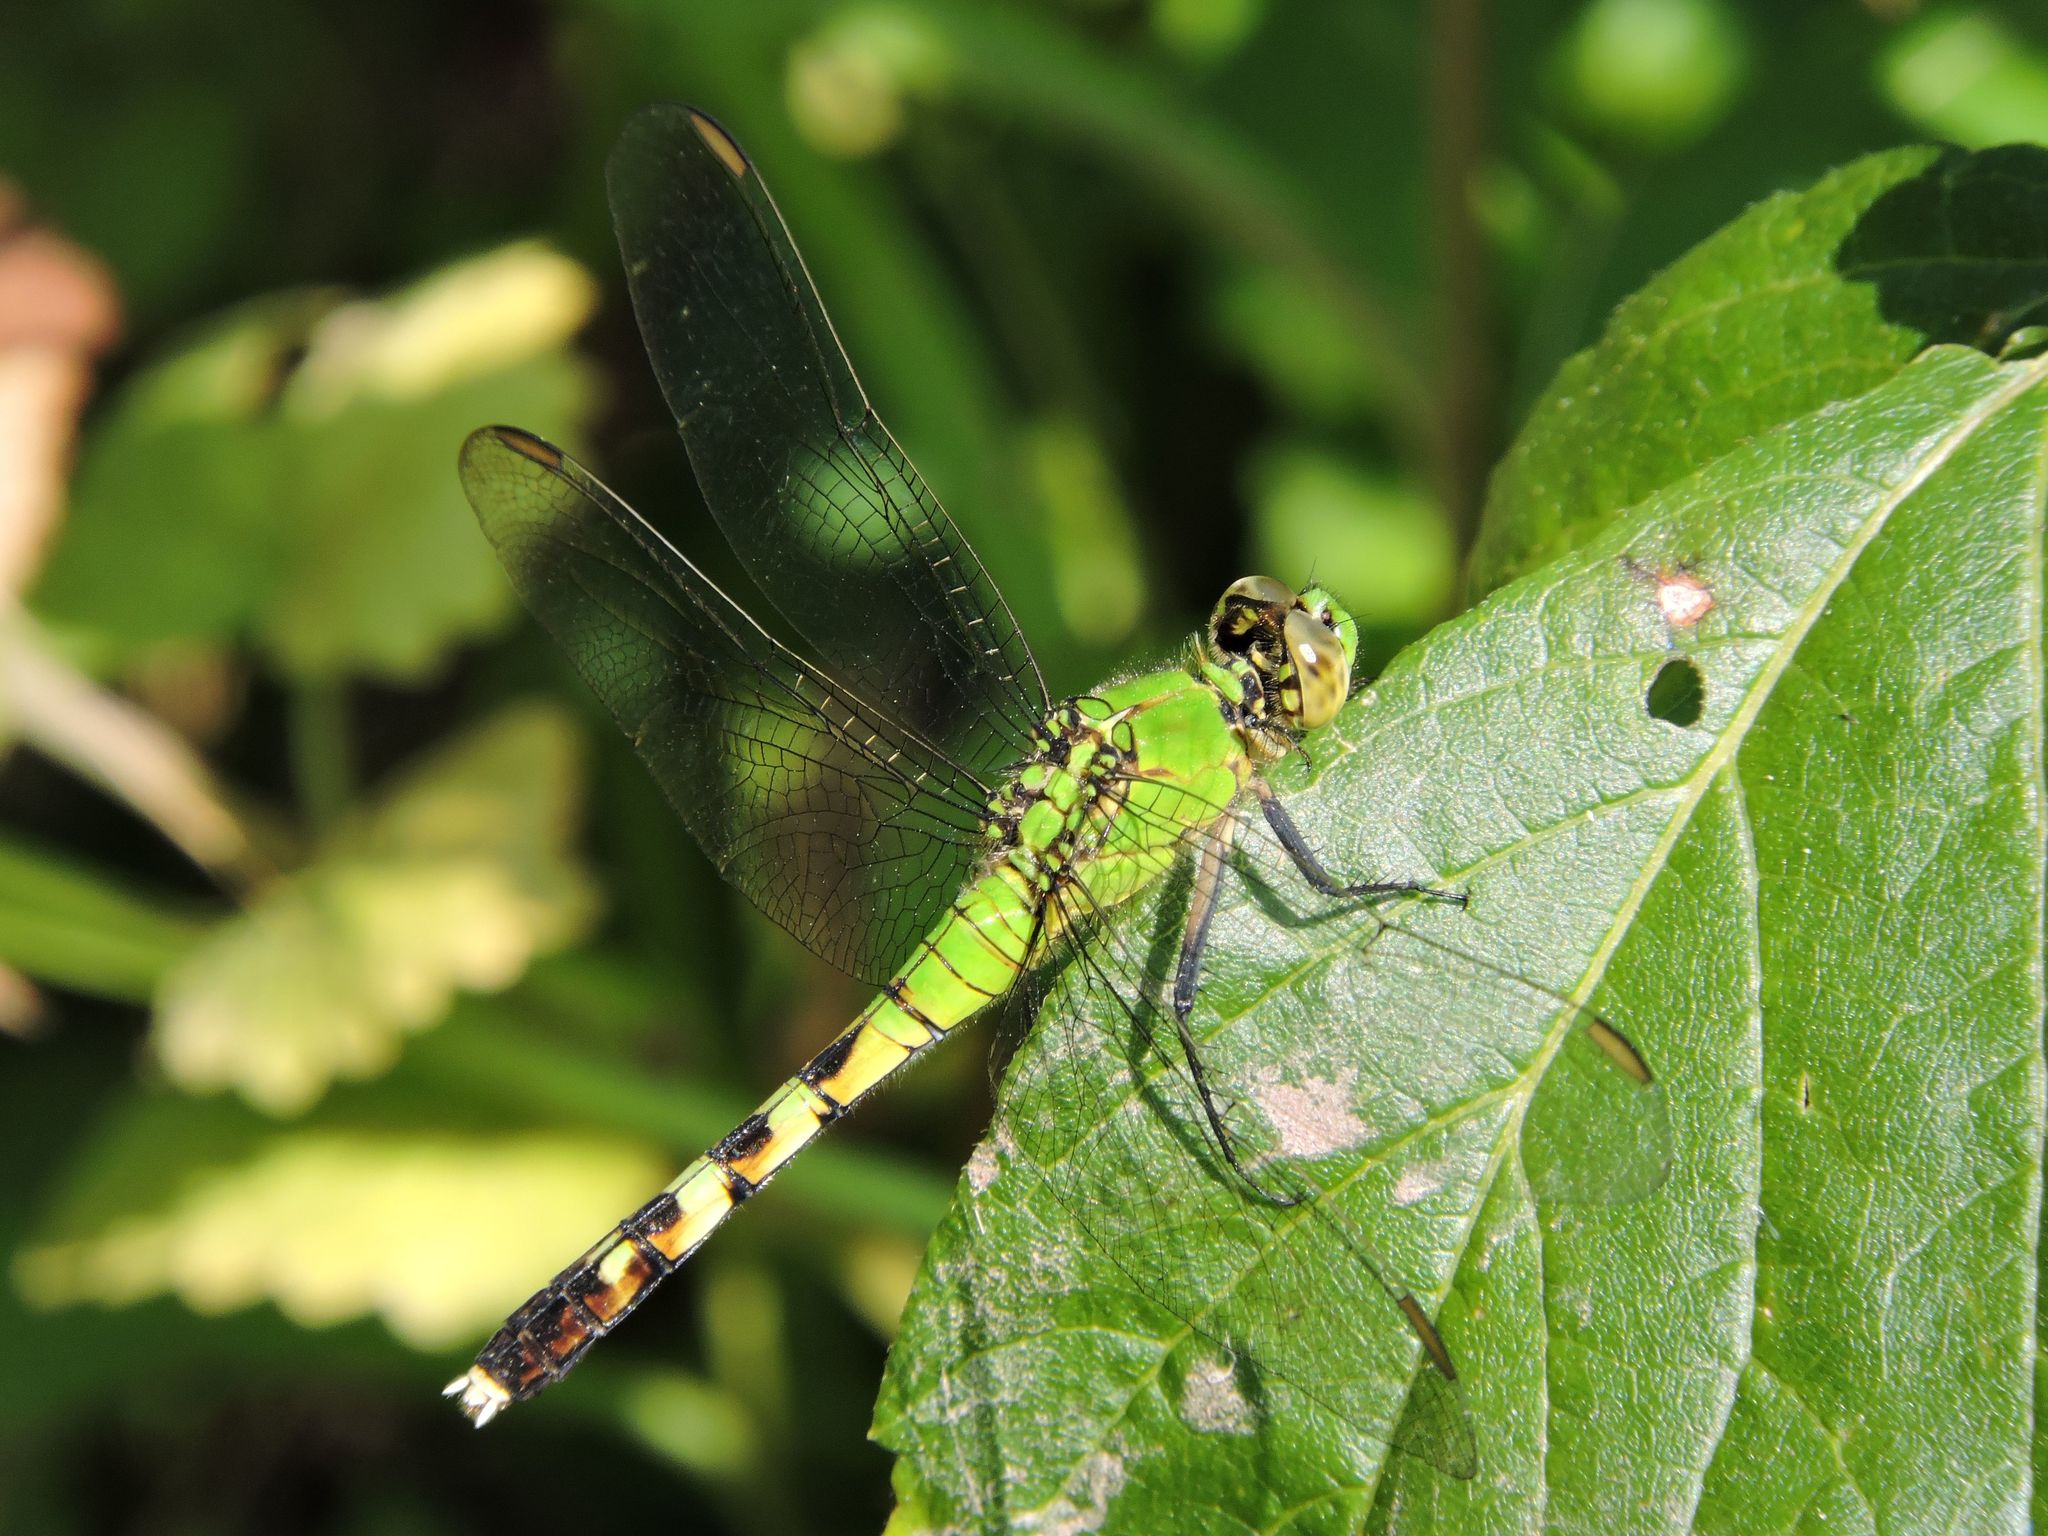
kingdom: Animalia
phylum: Arthropoda
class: Insecta
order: Odonata
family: Libellulidae
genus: Erythemis
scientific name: Erythemis simplicicollis
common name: Eastern pondhawk
